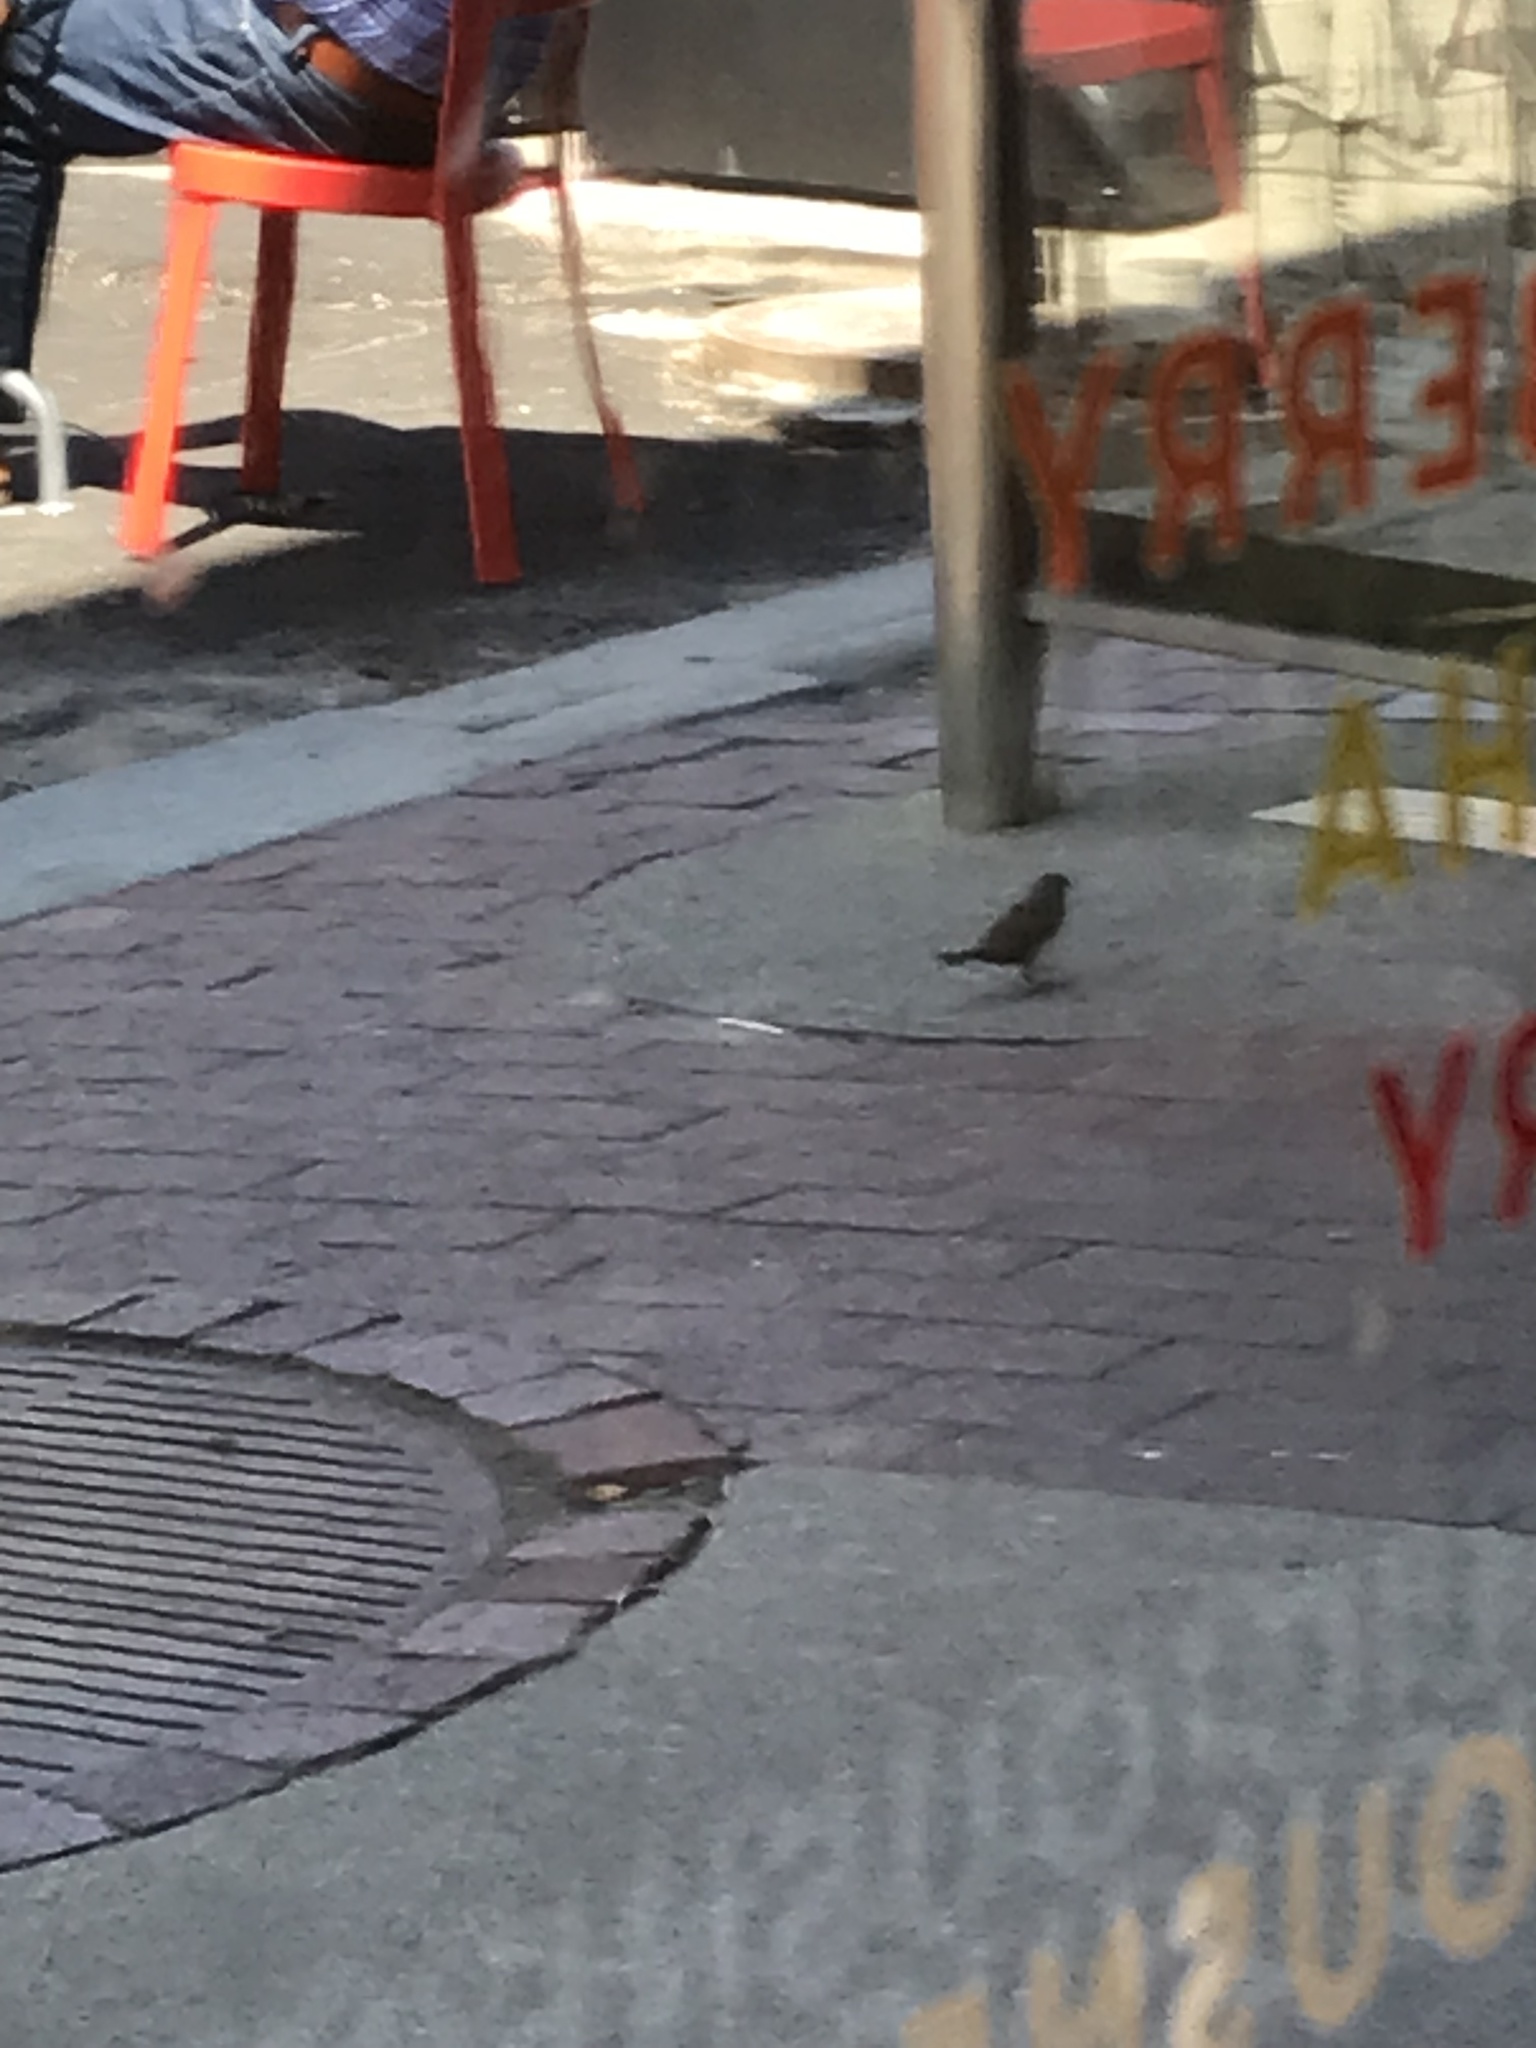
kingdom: Animalia
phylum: Chordata
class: Aves
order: Passeriformes
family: Passeridae
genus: Passer
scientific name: Passer domesticus
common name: House sparrow
